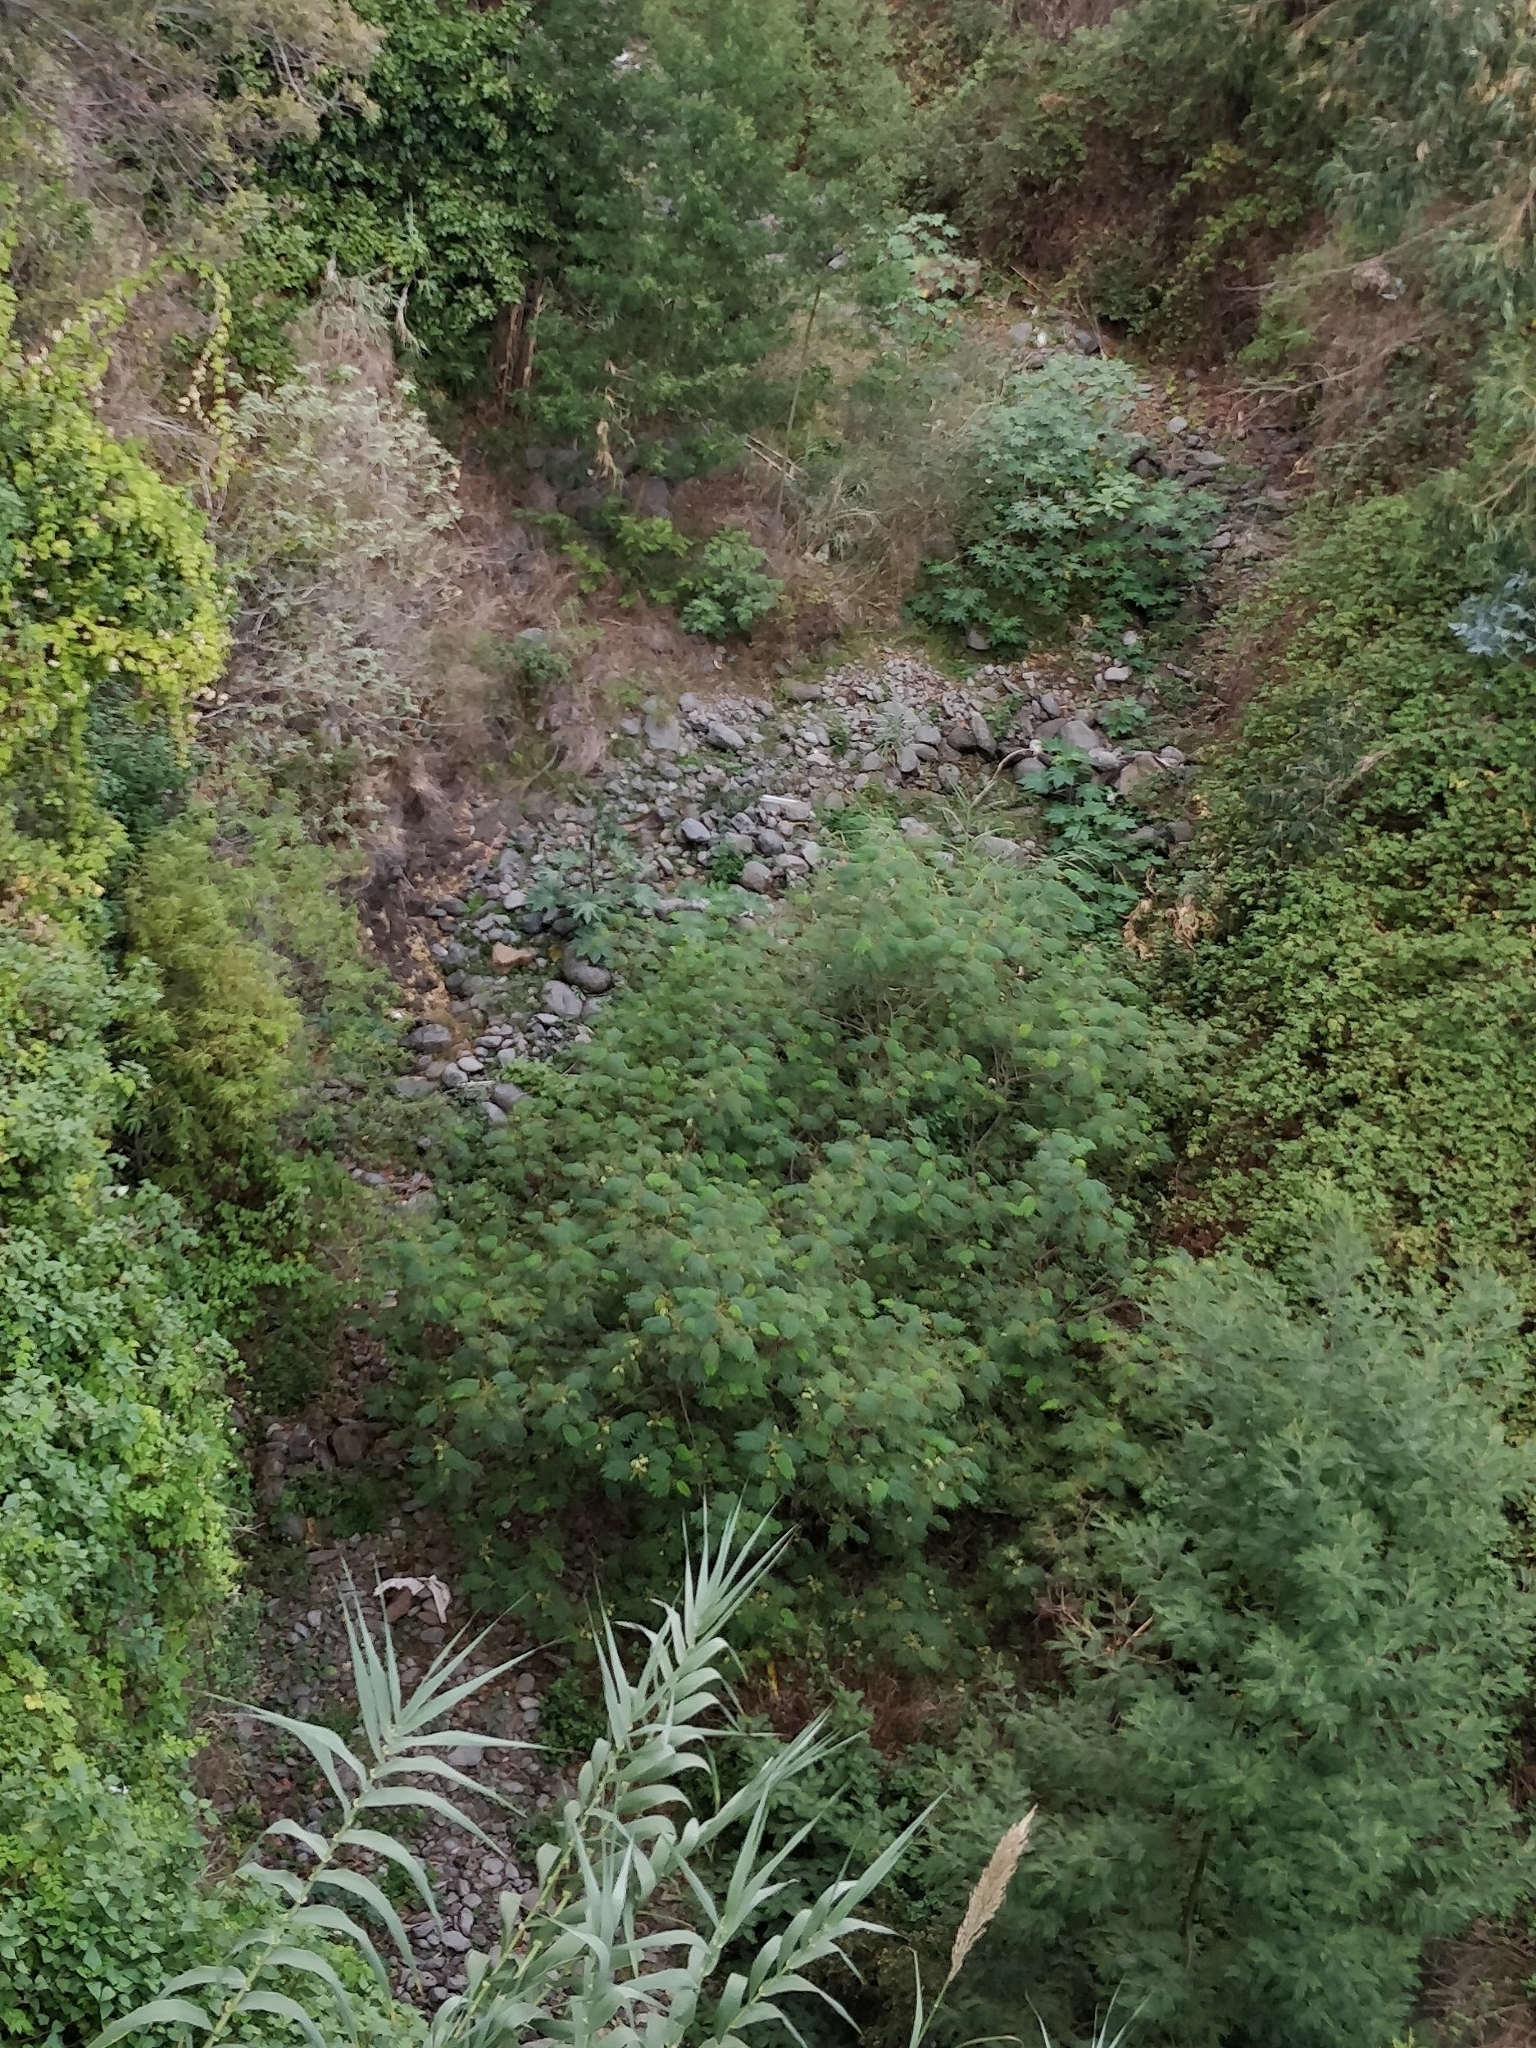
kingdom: Plantae
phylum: Tracheophyta
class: Magnoliopsida
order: Fabales
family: Fabaceae
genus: Acacia
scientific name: Acacia mearnsii
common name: Black wattle
